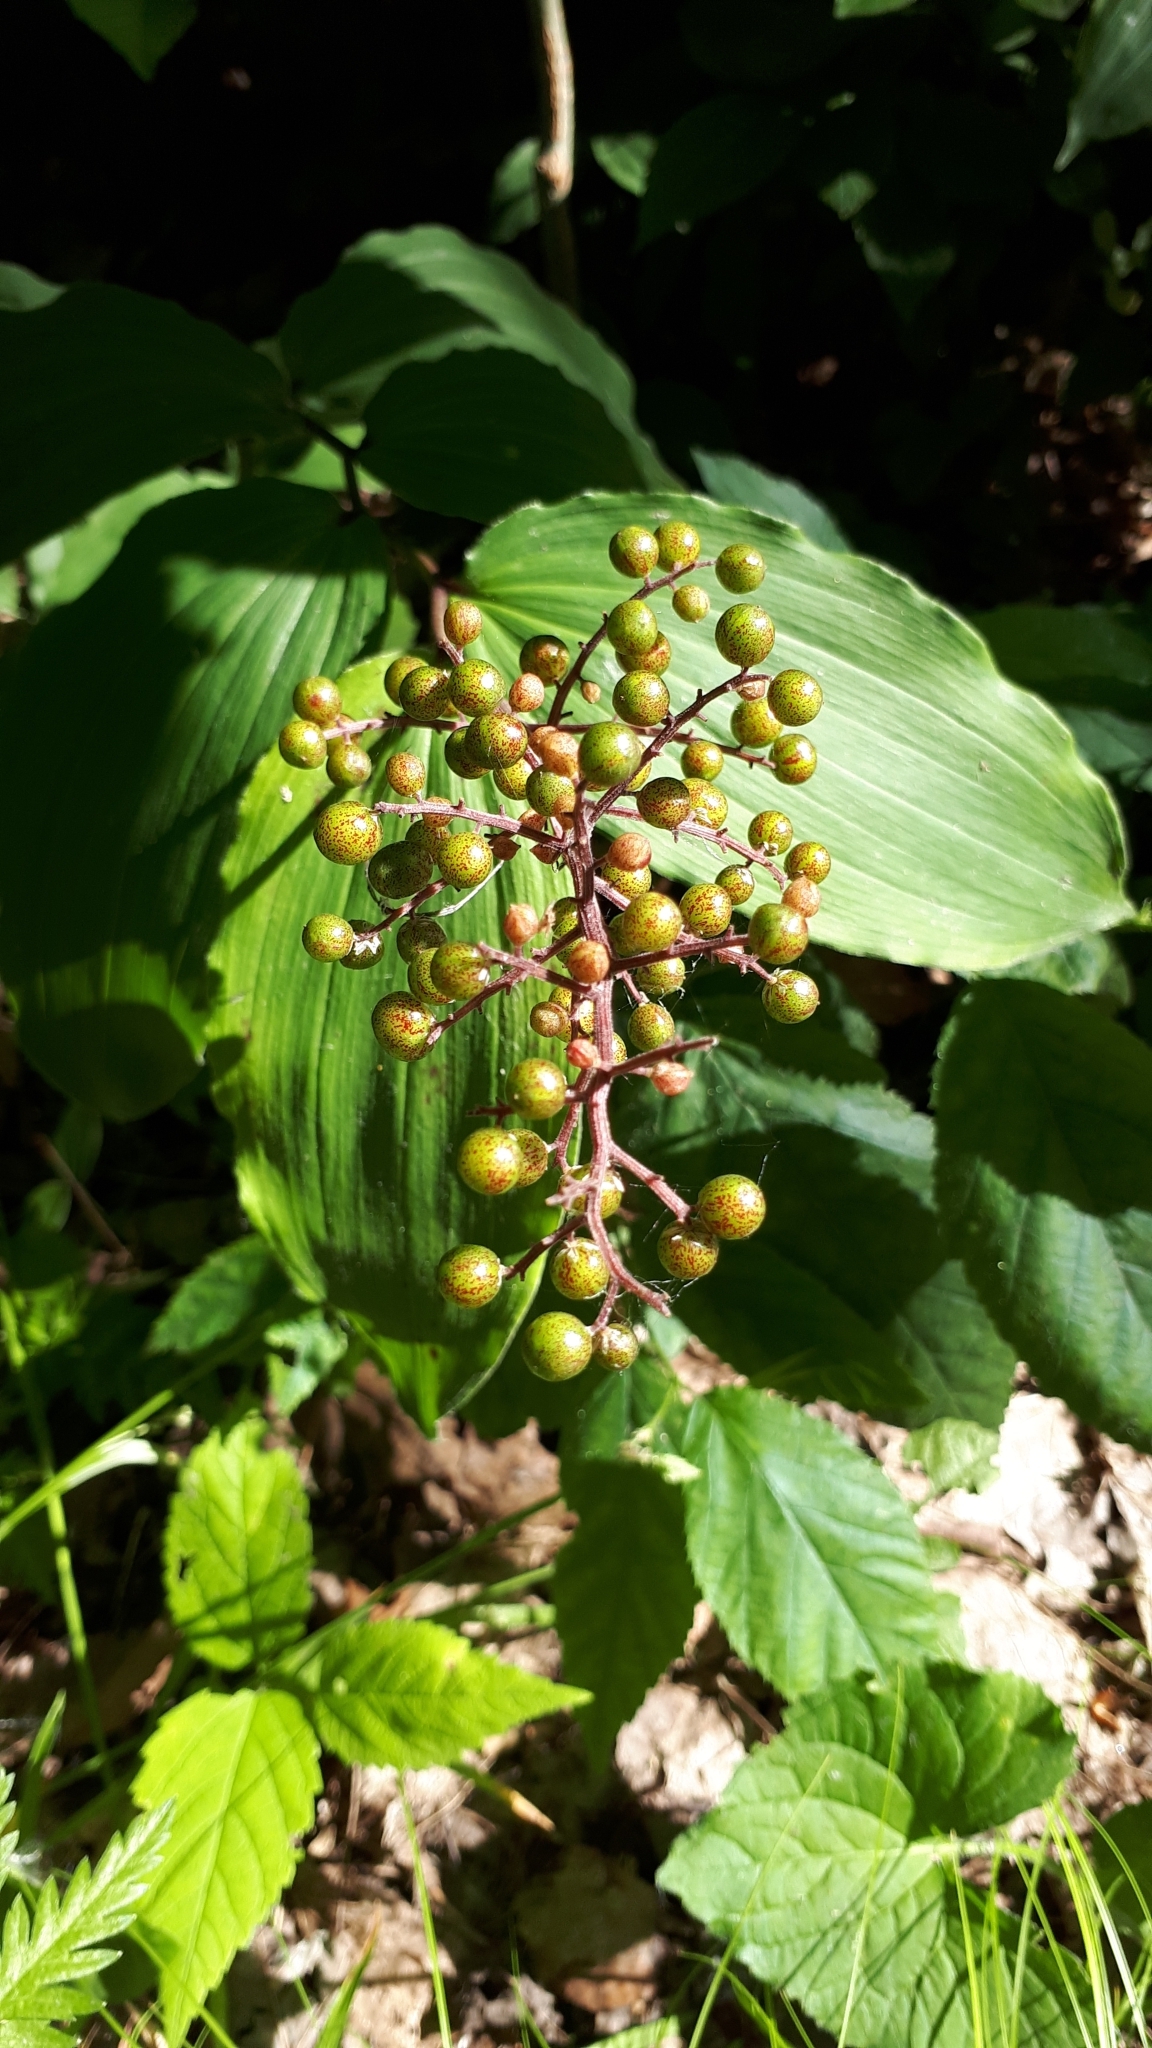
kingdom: Plantae
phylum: Tracheophyta
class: Liliopsida
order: Asparagales
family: Asparagaceae
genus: Maianthemum
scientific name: Maianthemum racemosum
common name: False spikenard
